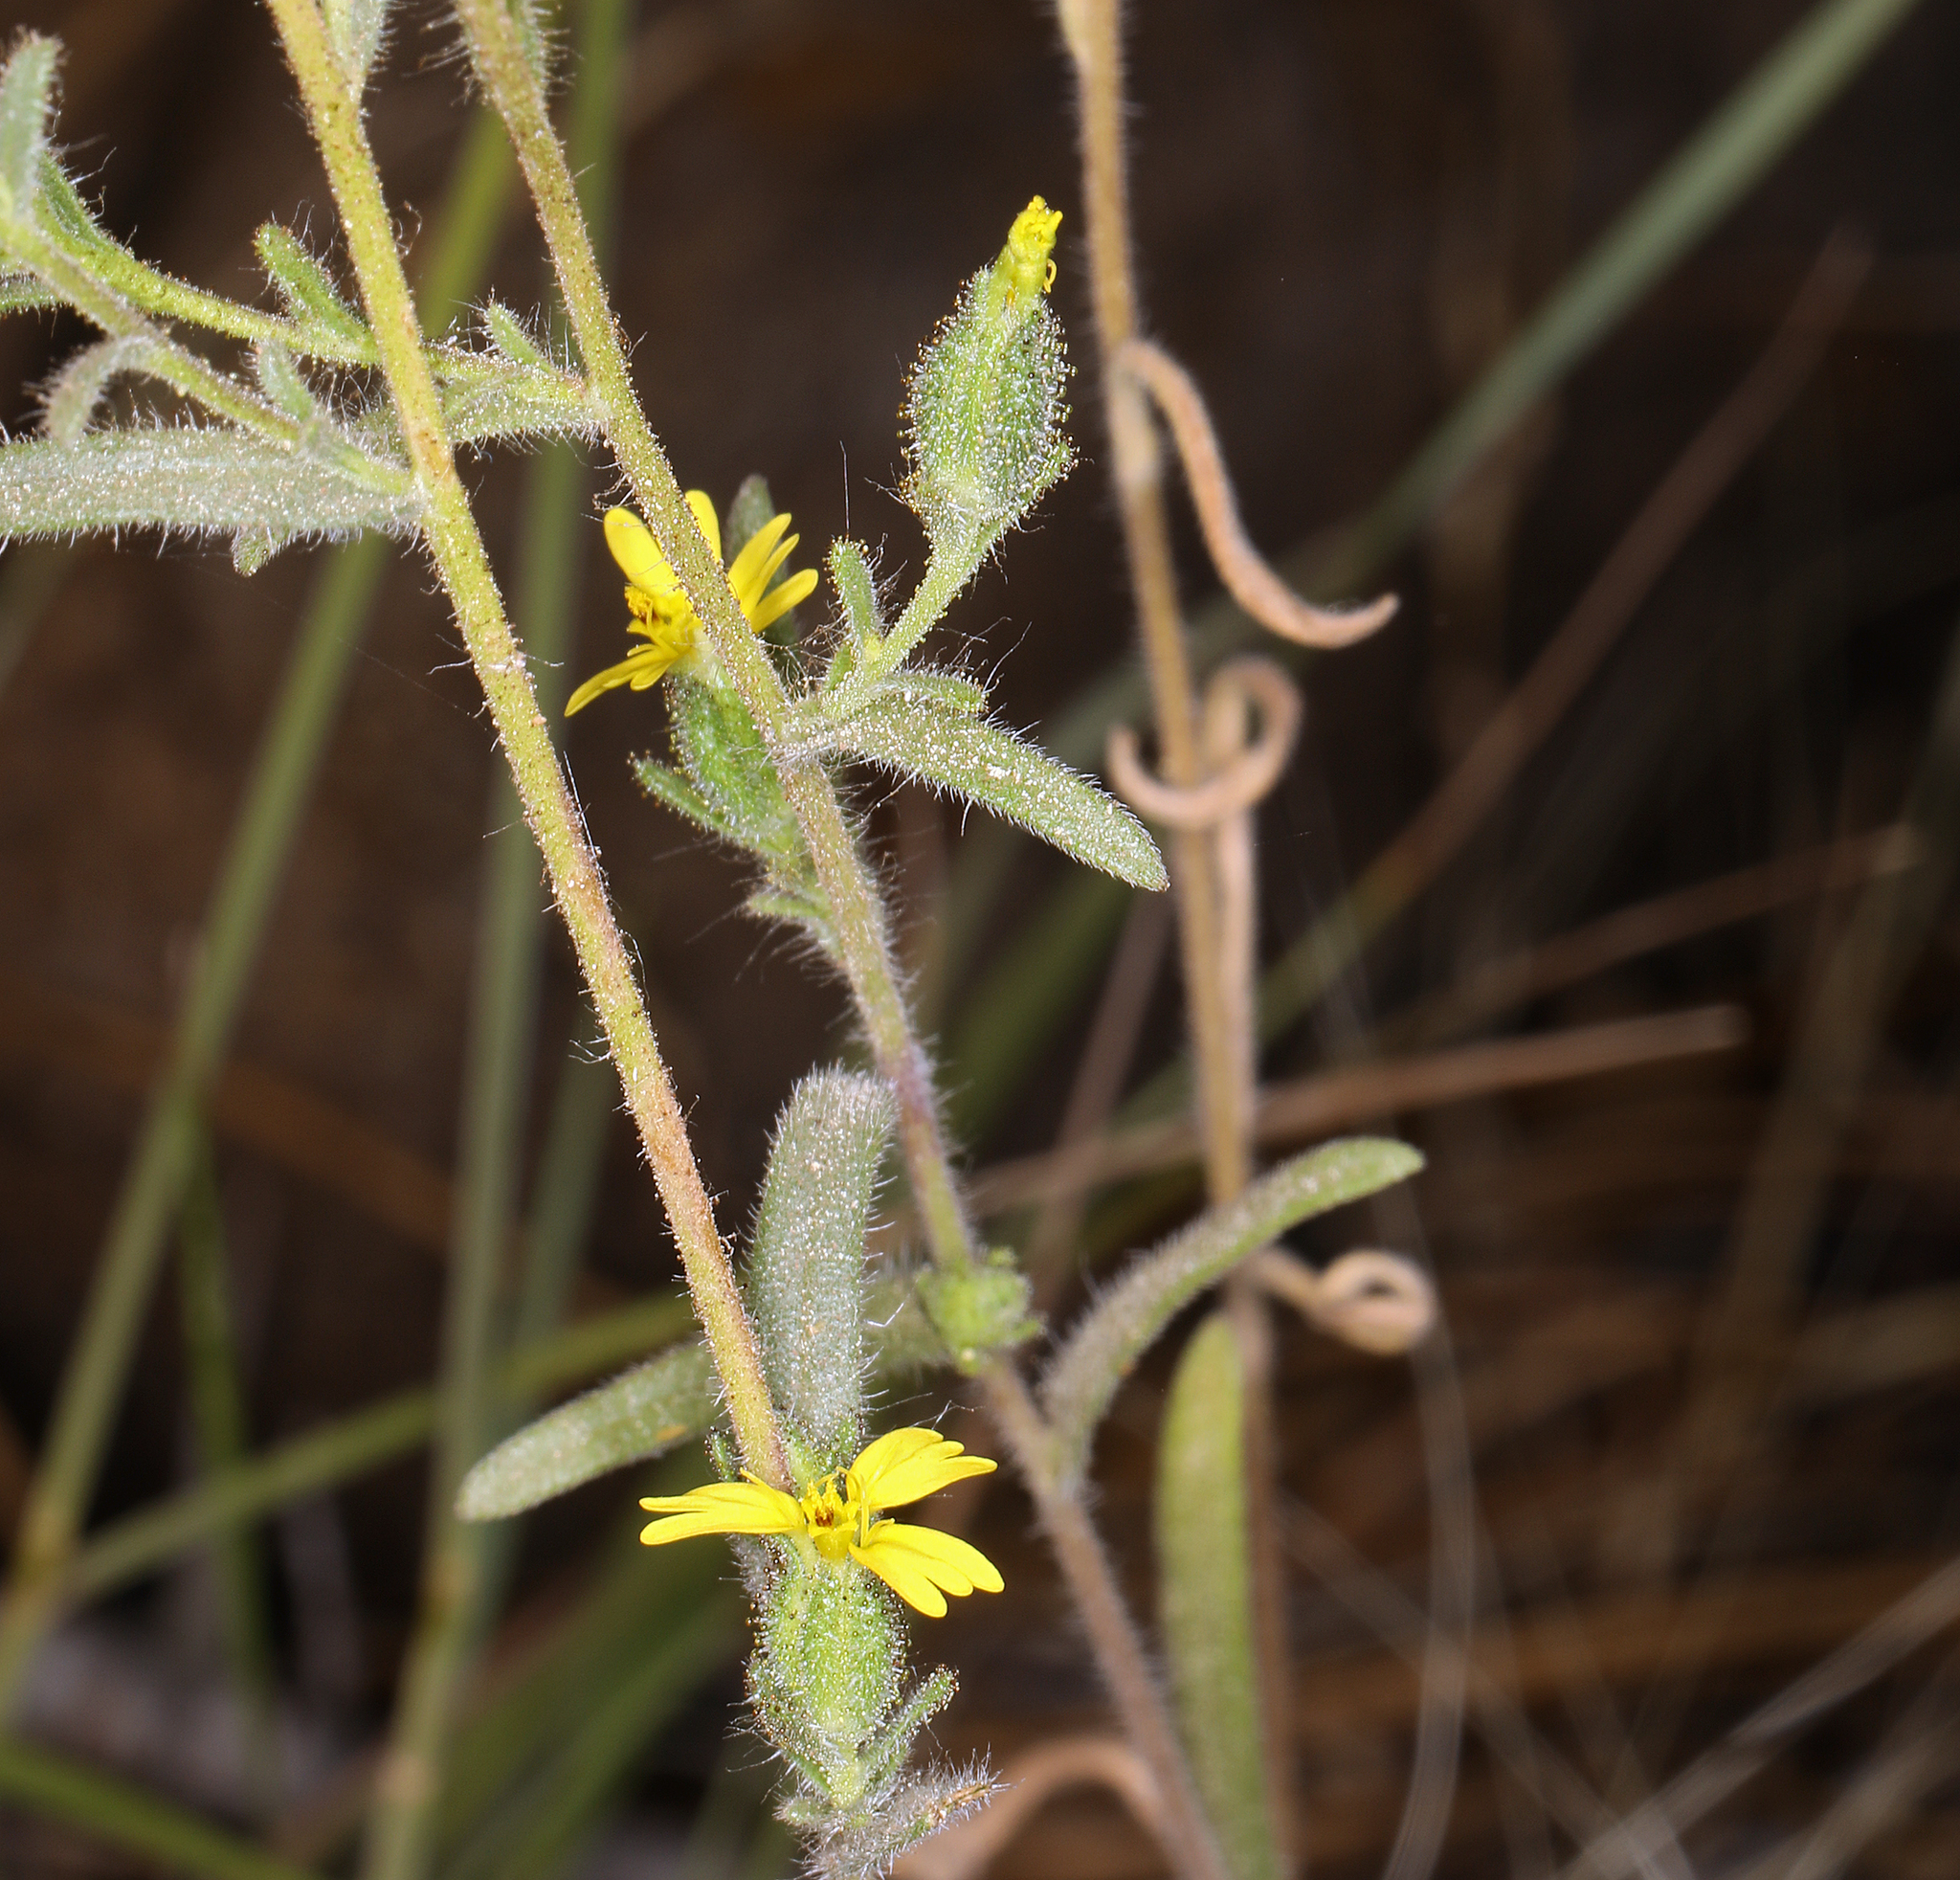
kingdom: Plantae
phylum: Tracheophyta
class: Magnoliopsida
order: Asterales
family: Asteraceae
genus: Madia
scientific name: Madia gracilis
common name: Grassy tarweed
